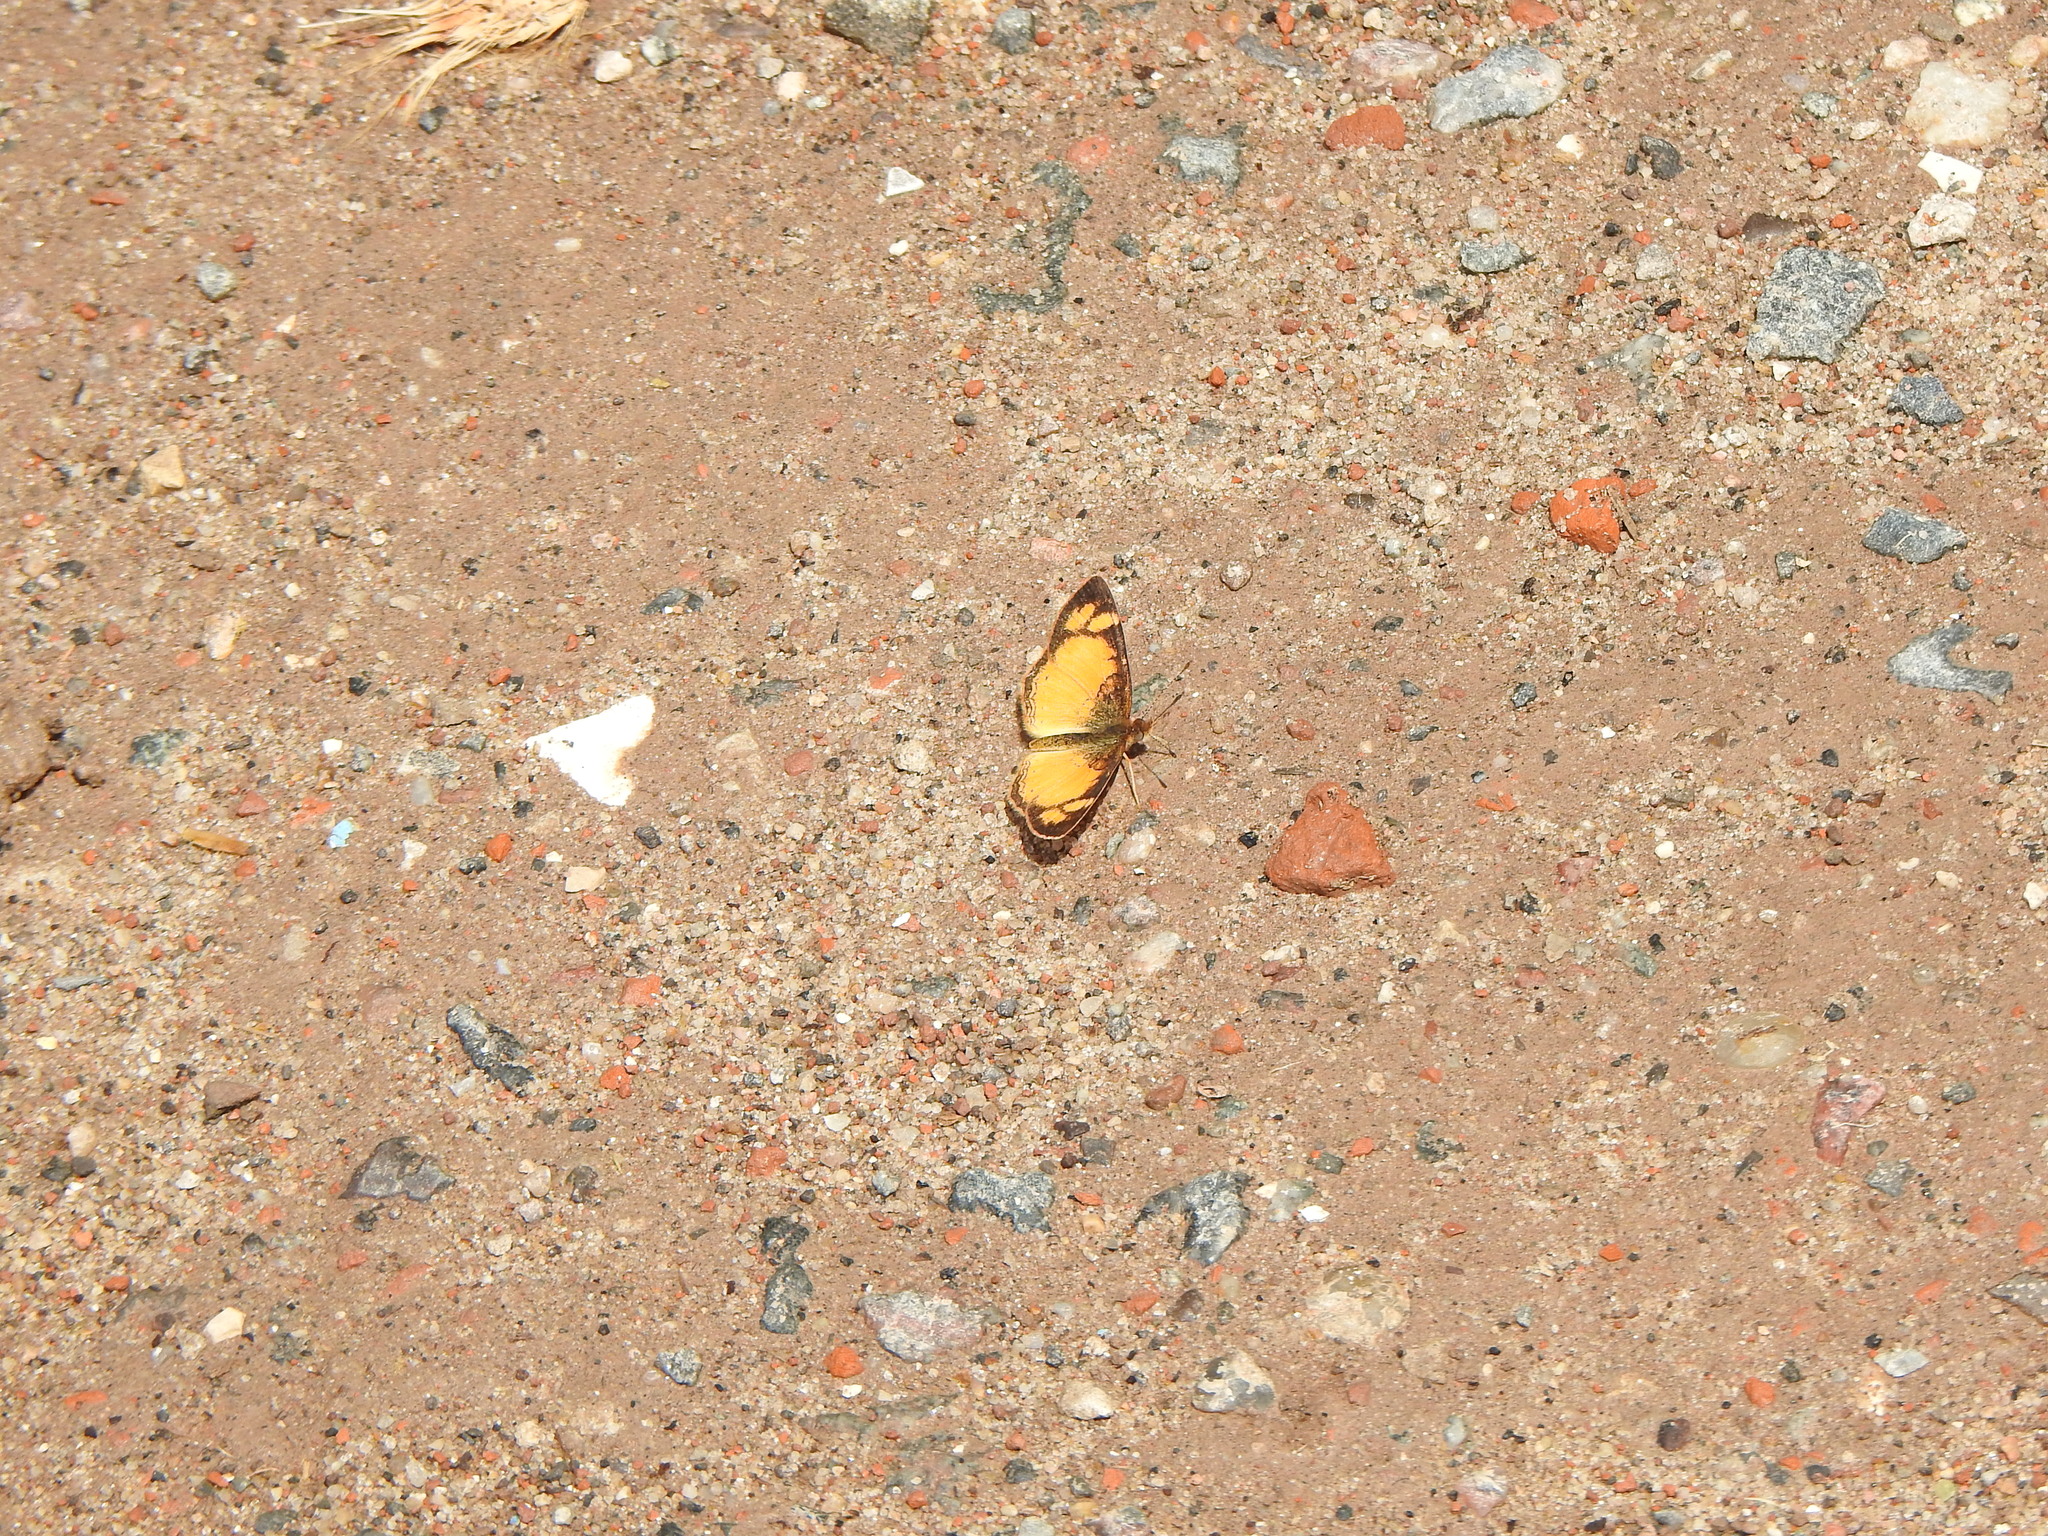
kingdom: Animalia
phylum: Arthropoda
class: Insecta
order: Lepidoptera
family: Nymphalidae
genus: Tegosa
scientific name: Tegosa claudina
